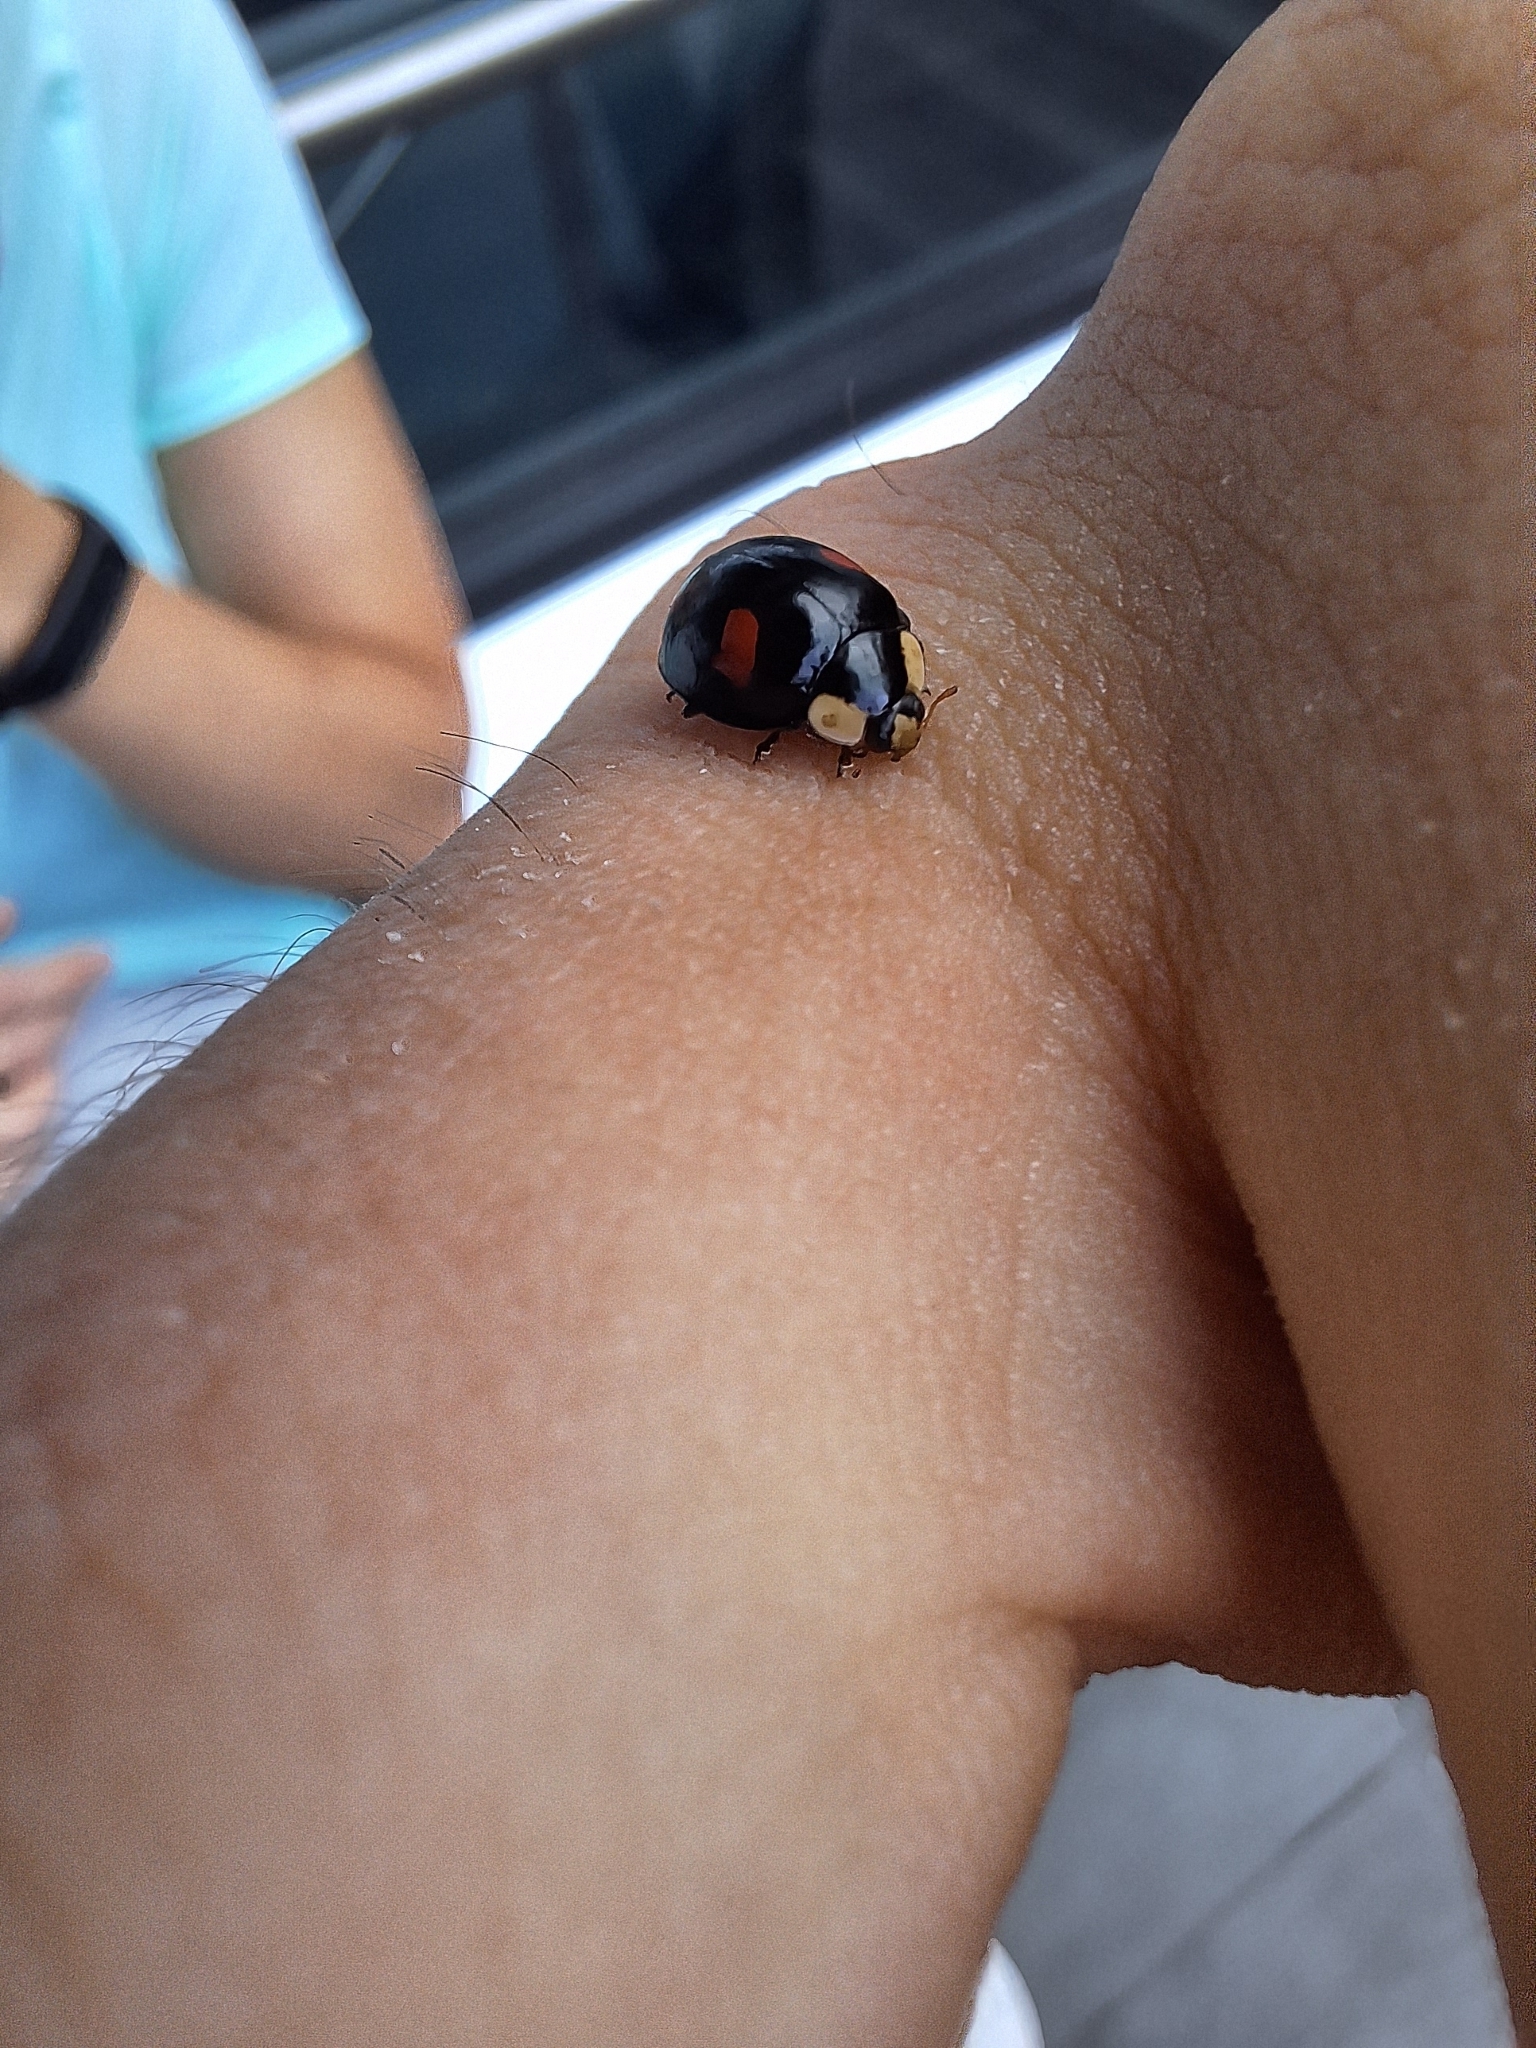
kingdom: Animalia
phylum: Arthropoda
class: Insecta
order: Coleoptera
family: Coccinellidae
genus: Harmonia
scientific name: Harmonia axyridis
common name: Harlequin ladybird
